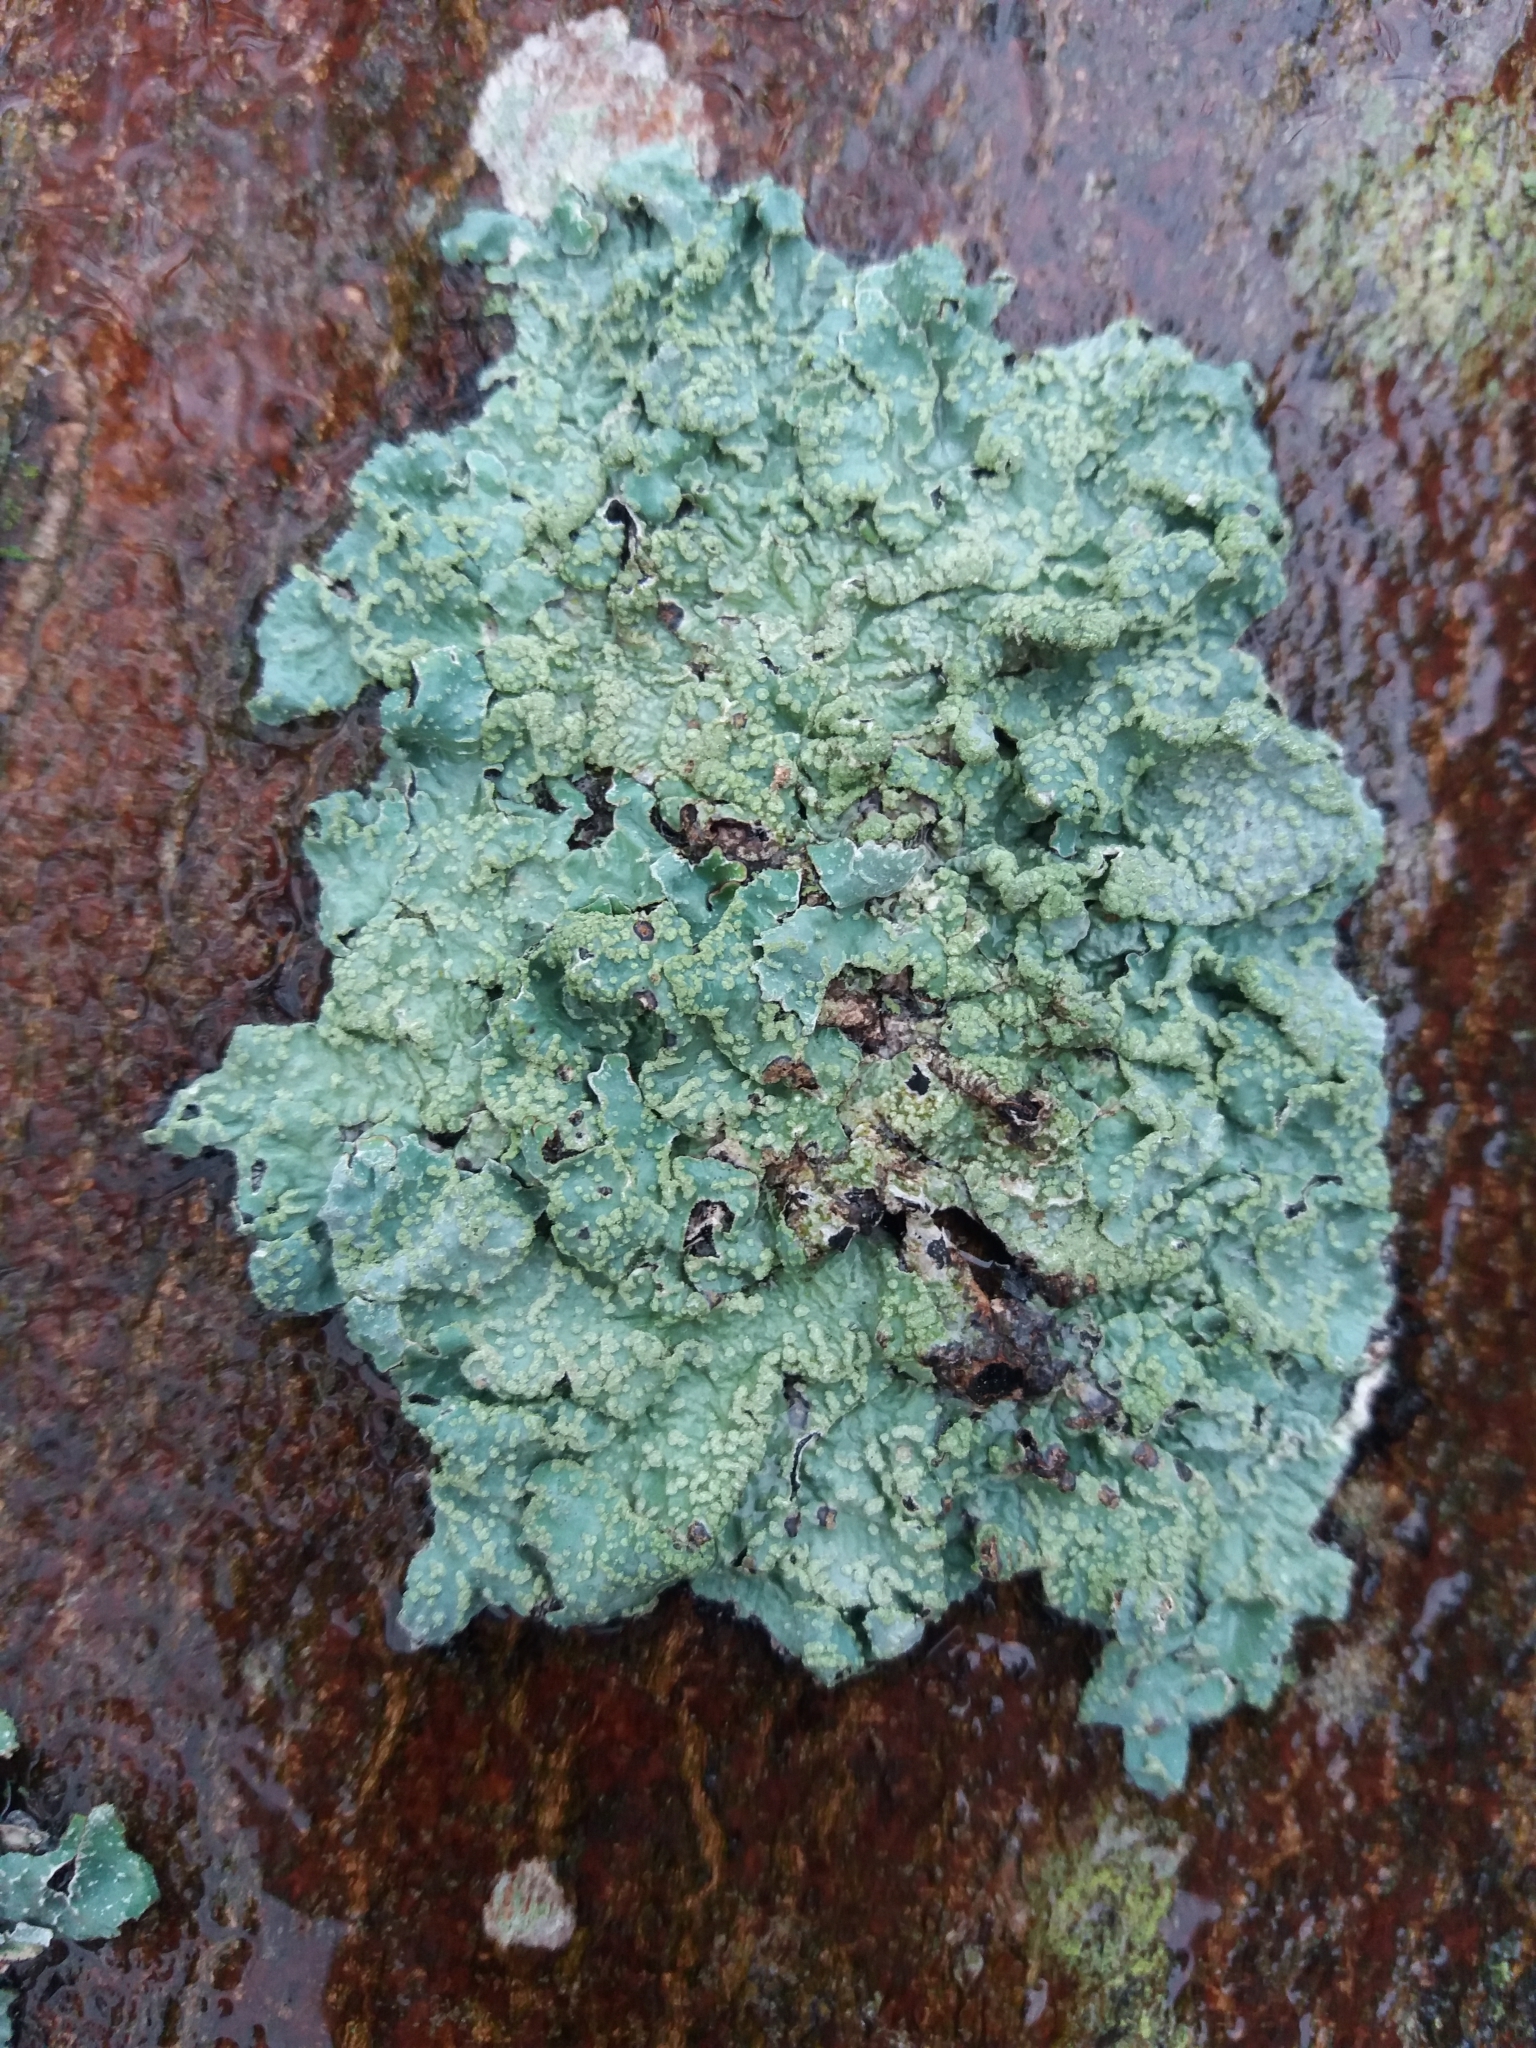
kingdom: Fungi
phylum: Ascomycota
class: Lecanoromycetes
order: Lecanorales
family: Parmeliaceae
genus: Parmelia
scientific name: Parmelia sulcata
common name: Netted shield lichen
